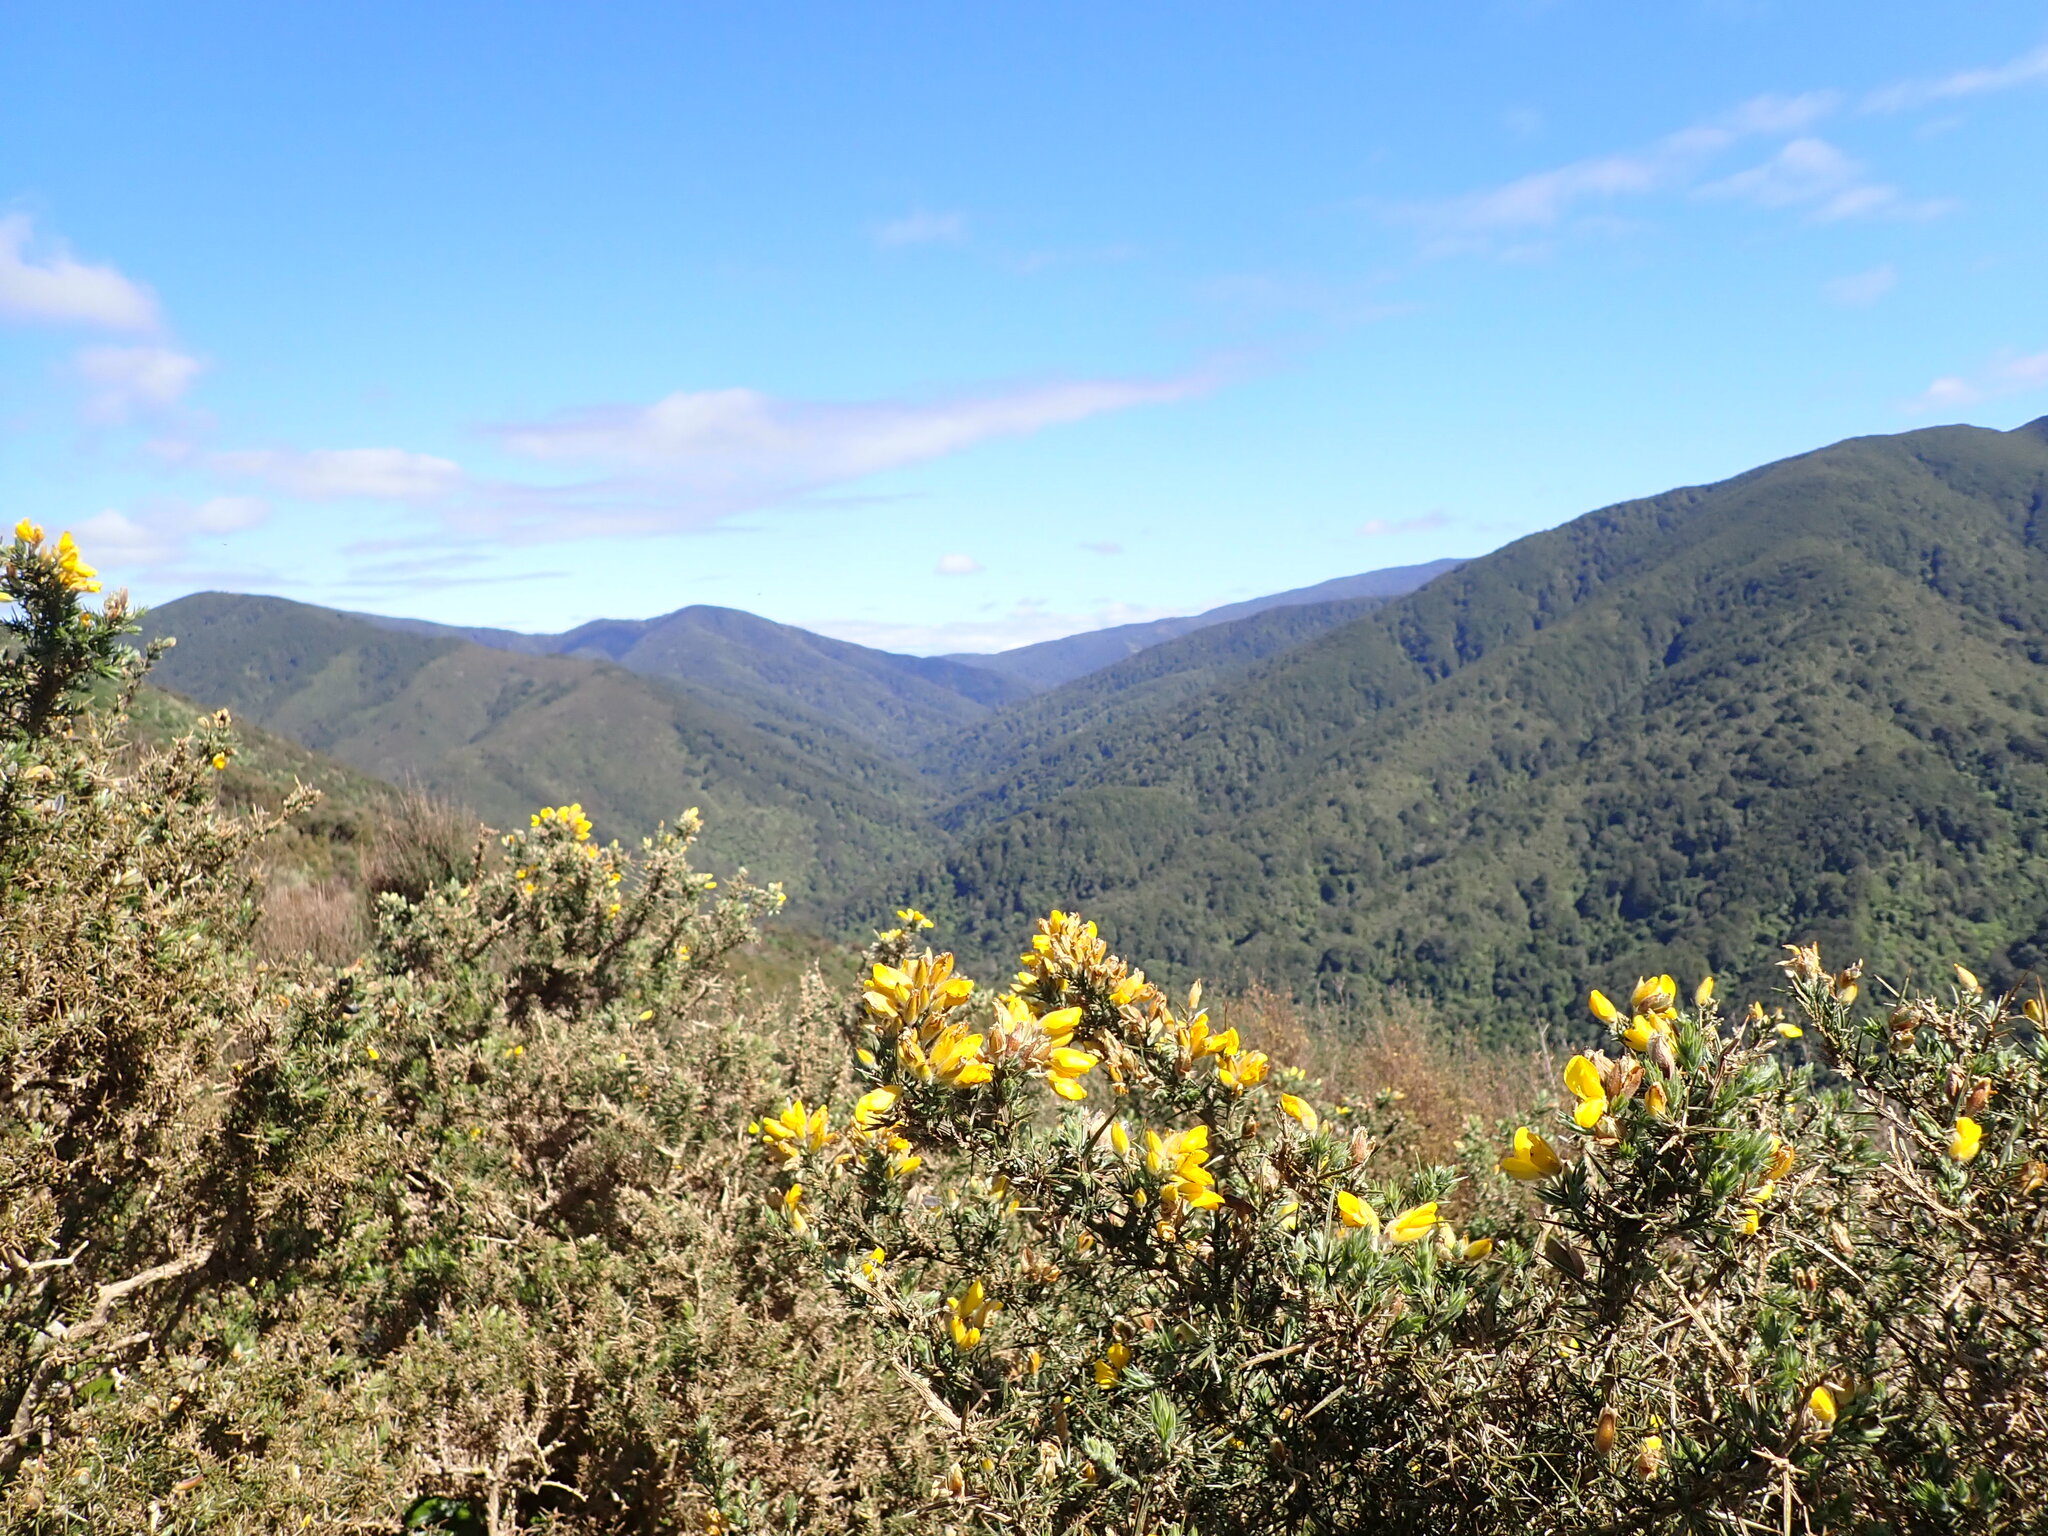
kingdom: Plantae
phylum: Tracheophyta
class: Magnoliopsida
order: Fabales
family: Fabaceae
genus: Ulex
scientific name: Ulex europaeus
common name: Common gorse
